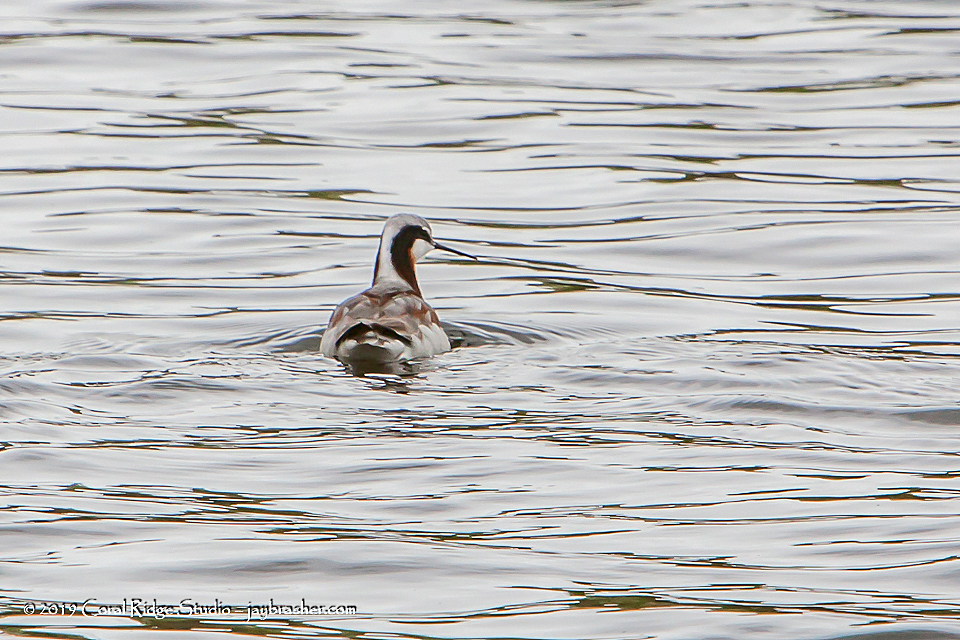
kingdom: Animalia
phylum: Chordata
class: Aves
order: Charadriiformes
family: Scolopacidae
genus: Phalaropus
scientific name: Phalaropus tricolor
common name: Wilson's phalarope
